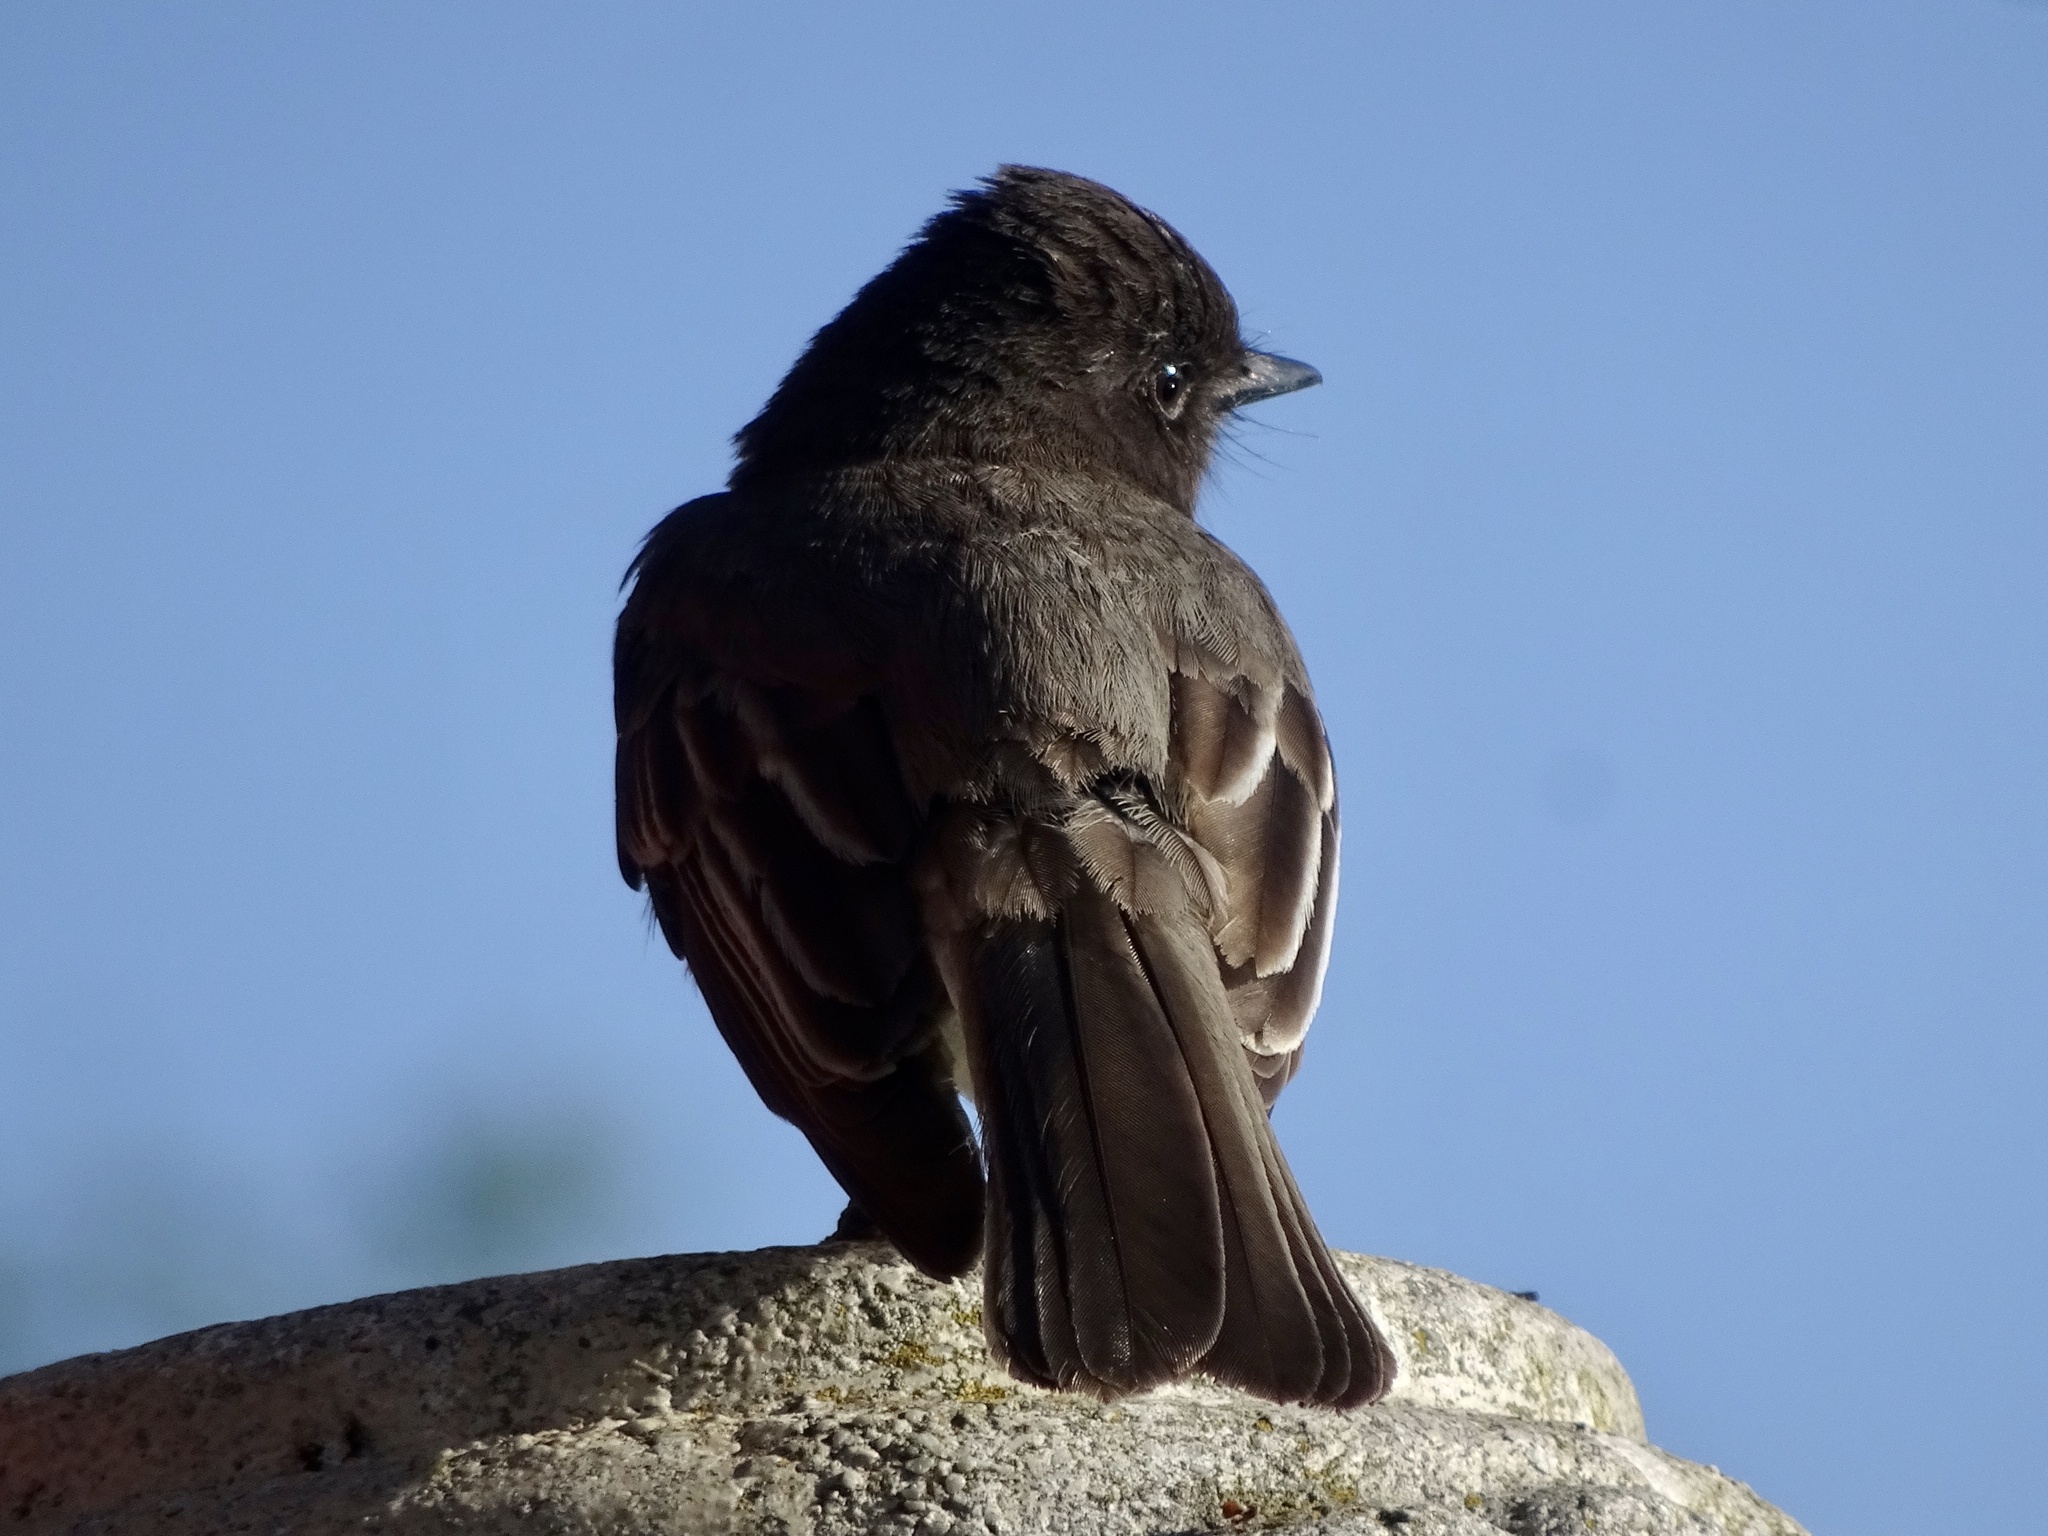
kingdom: Animalia
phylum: Chordata
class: Aves
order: Passeriformes
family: Tyrannidae
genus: Sayornis
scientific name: Sayornis nigricans
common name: Black phoebe
